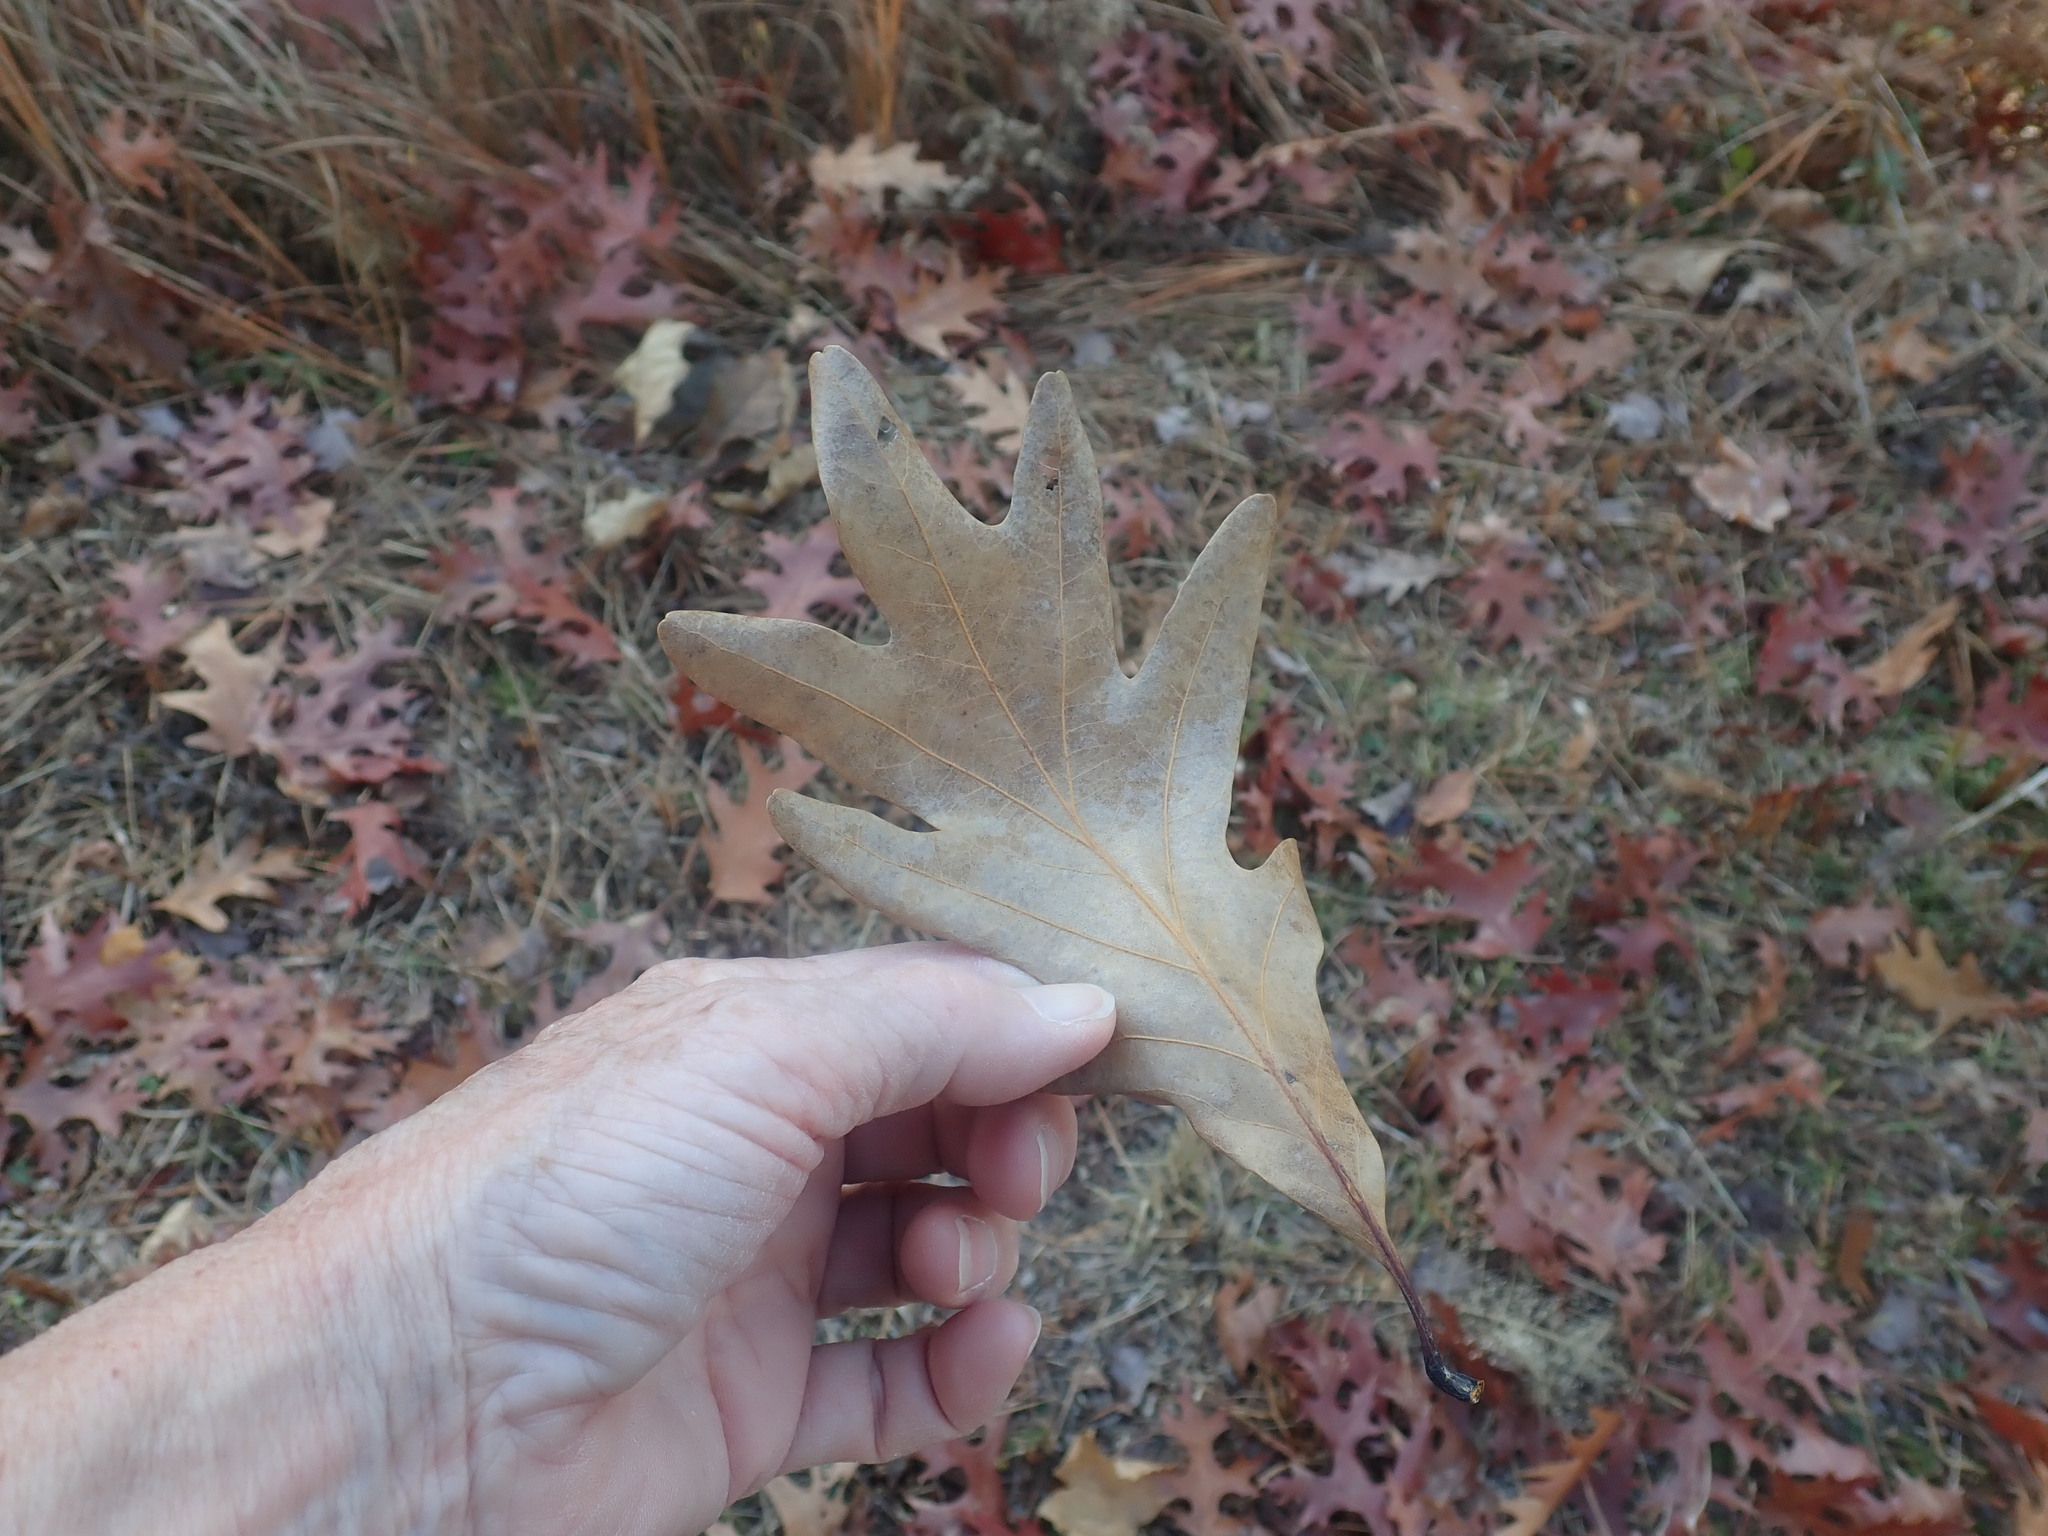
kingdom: Plantae
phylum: Tracheophyta
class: Magnoliopsida
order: Fagales
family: Fagaceae
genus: Quercus
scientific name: Quercus alba
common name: White oak
